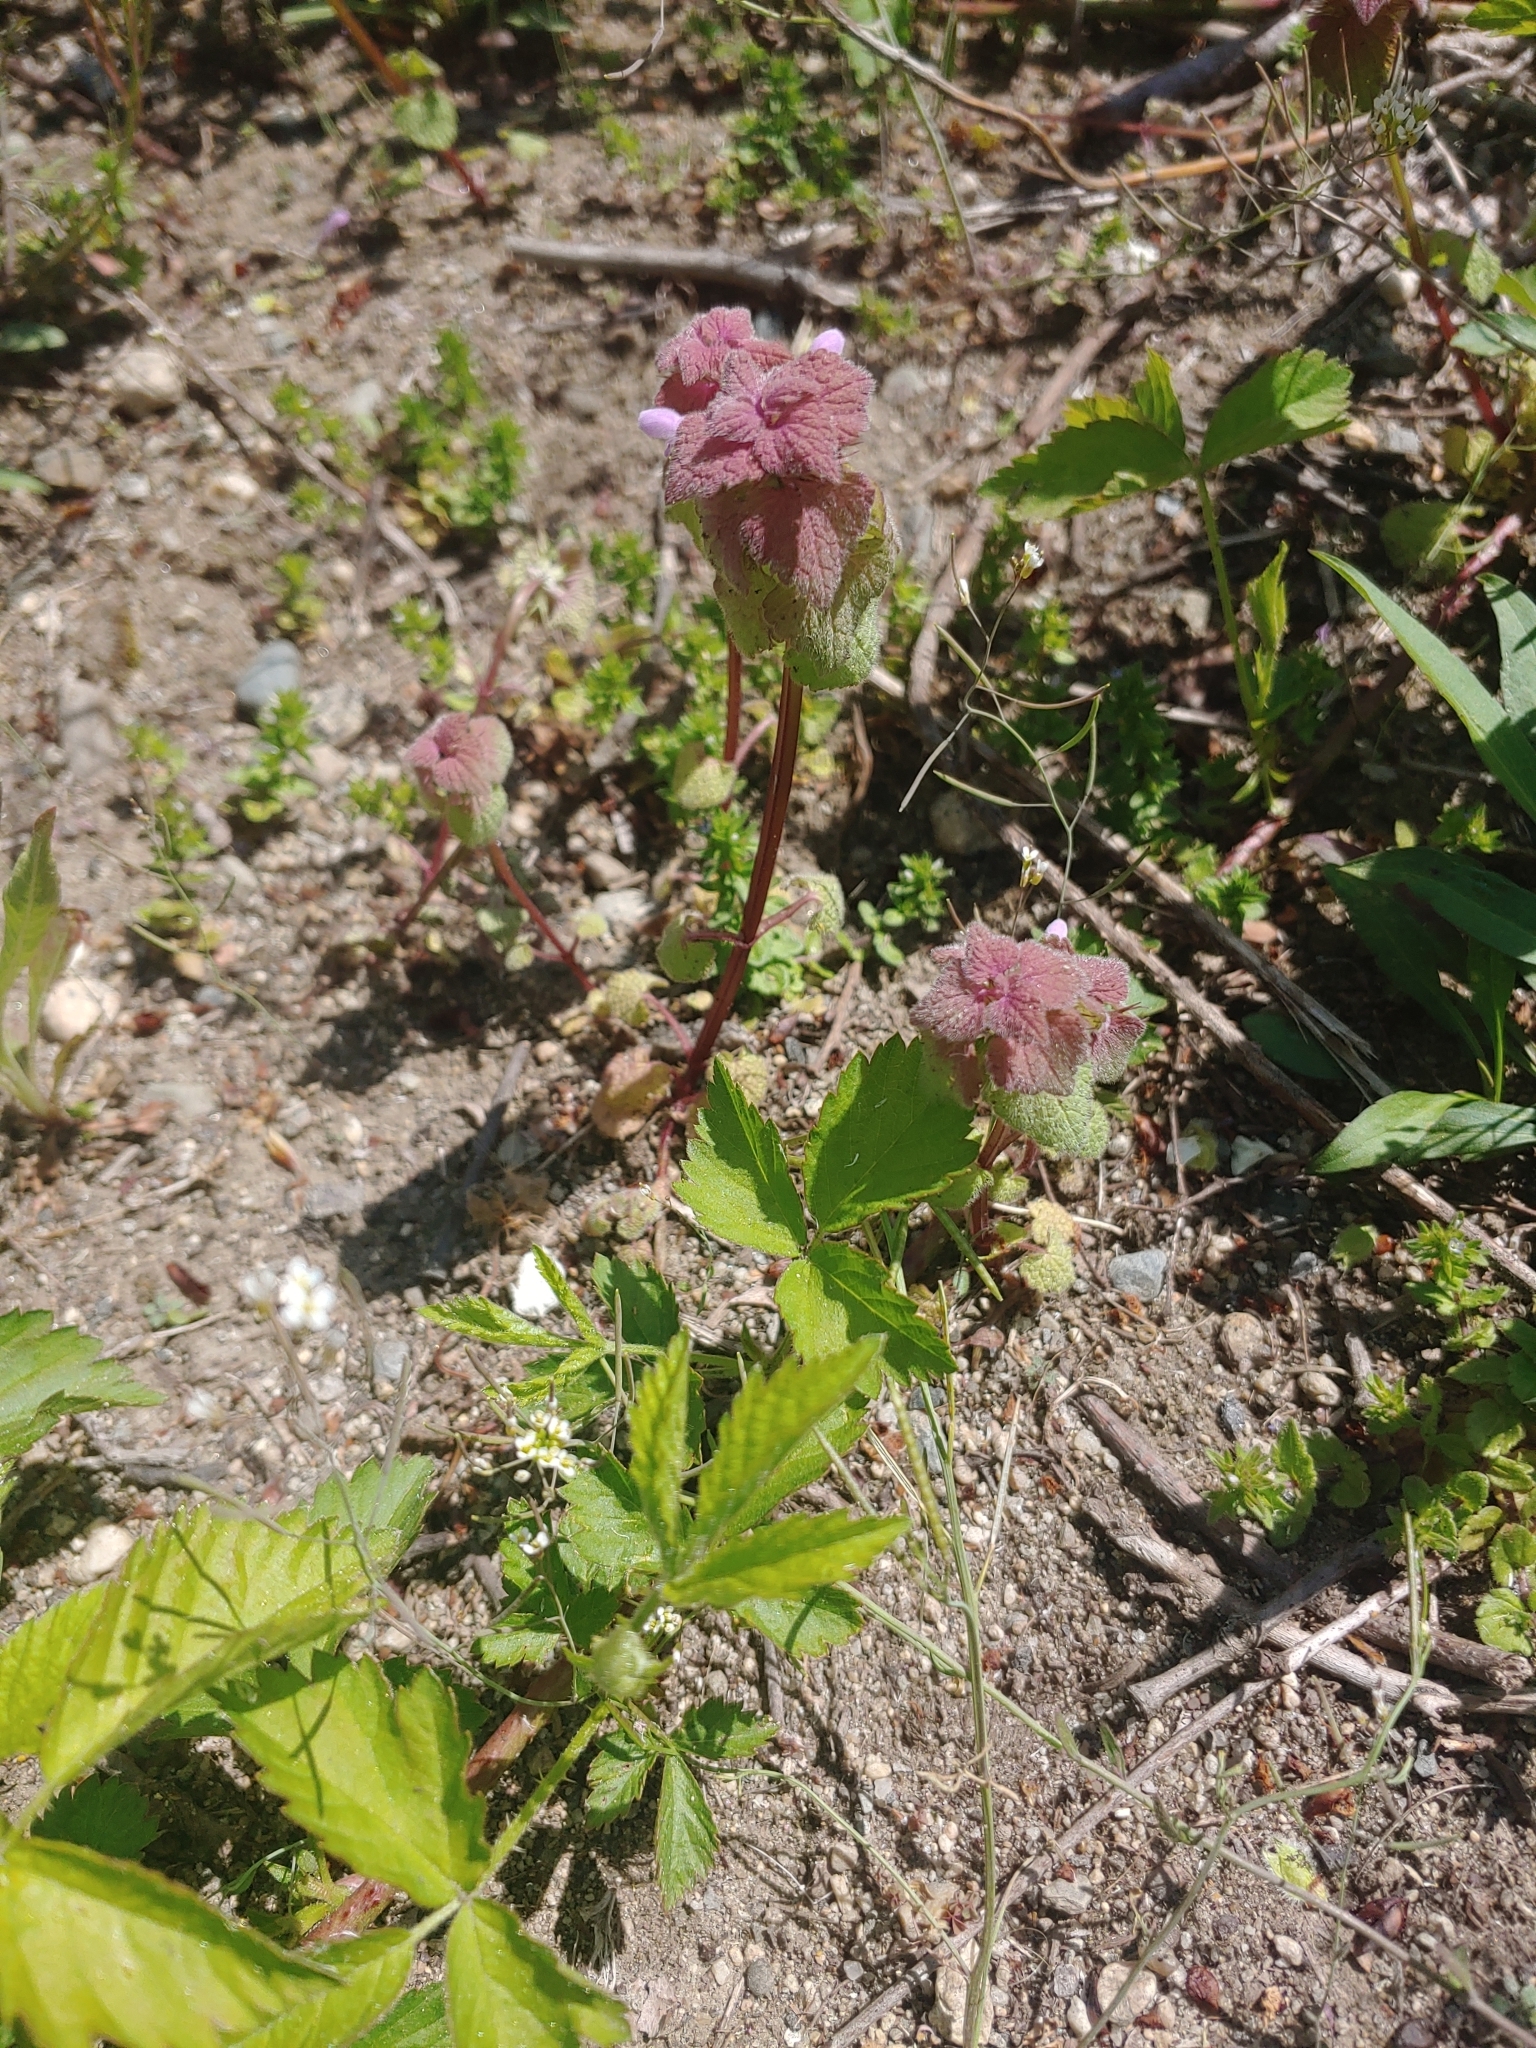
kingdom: Plantae
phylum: Tracheophyta
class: Magnoliopsida
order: Lamiales
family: Lamiaceae
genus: Lamium
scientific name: Lamium purpureum
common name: Red dead-nettle
